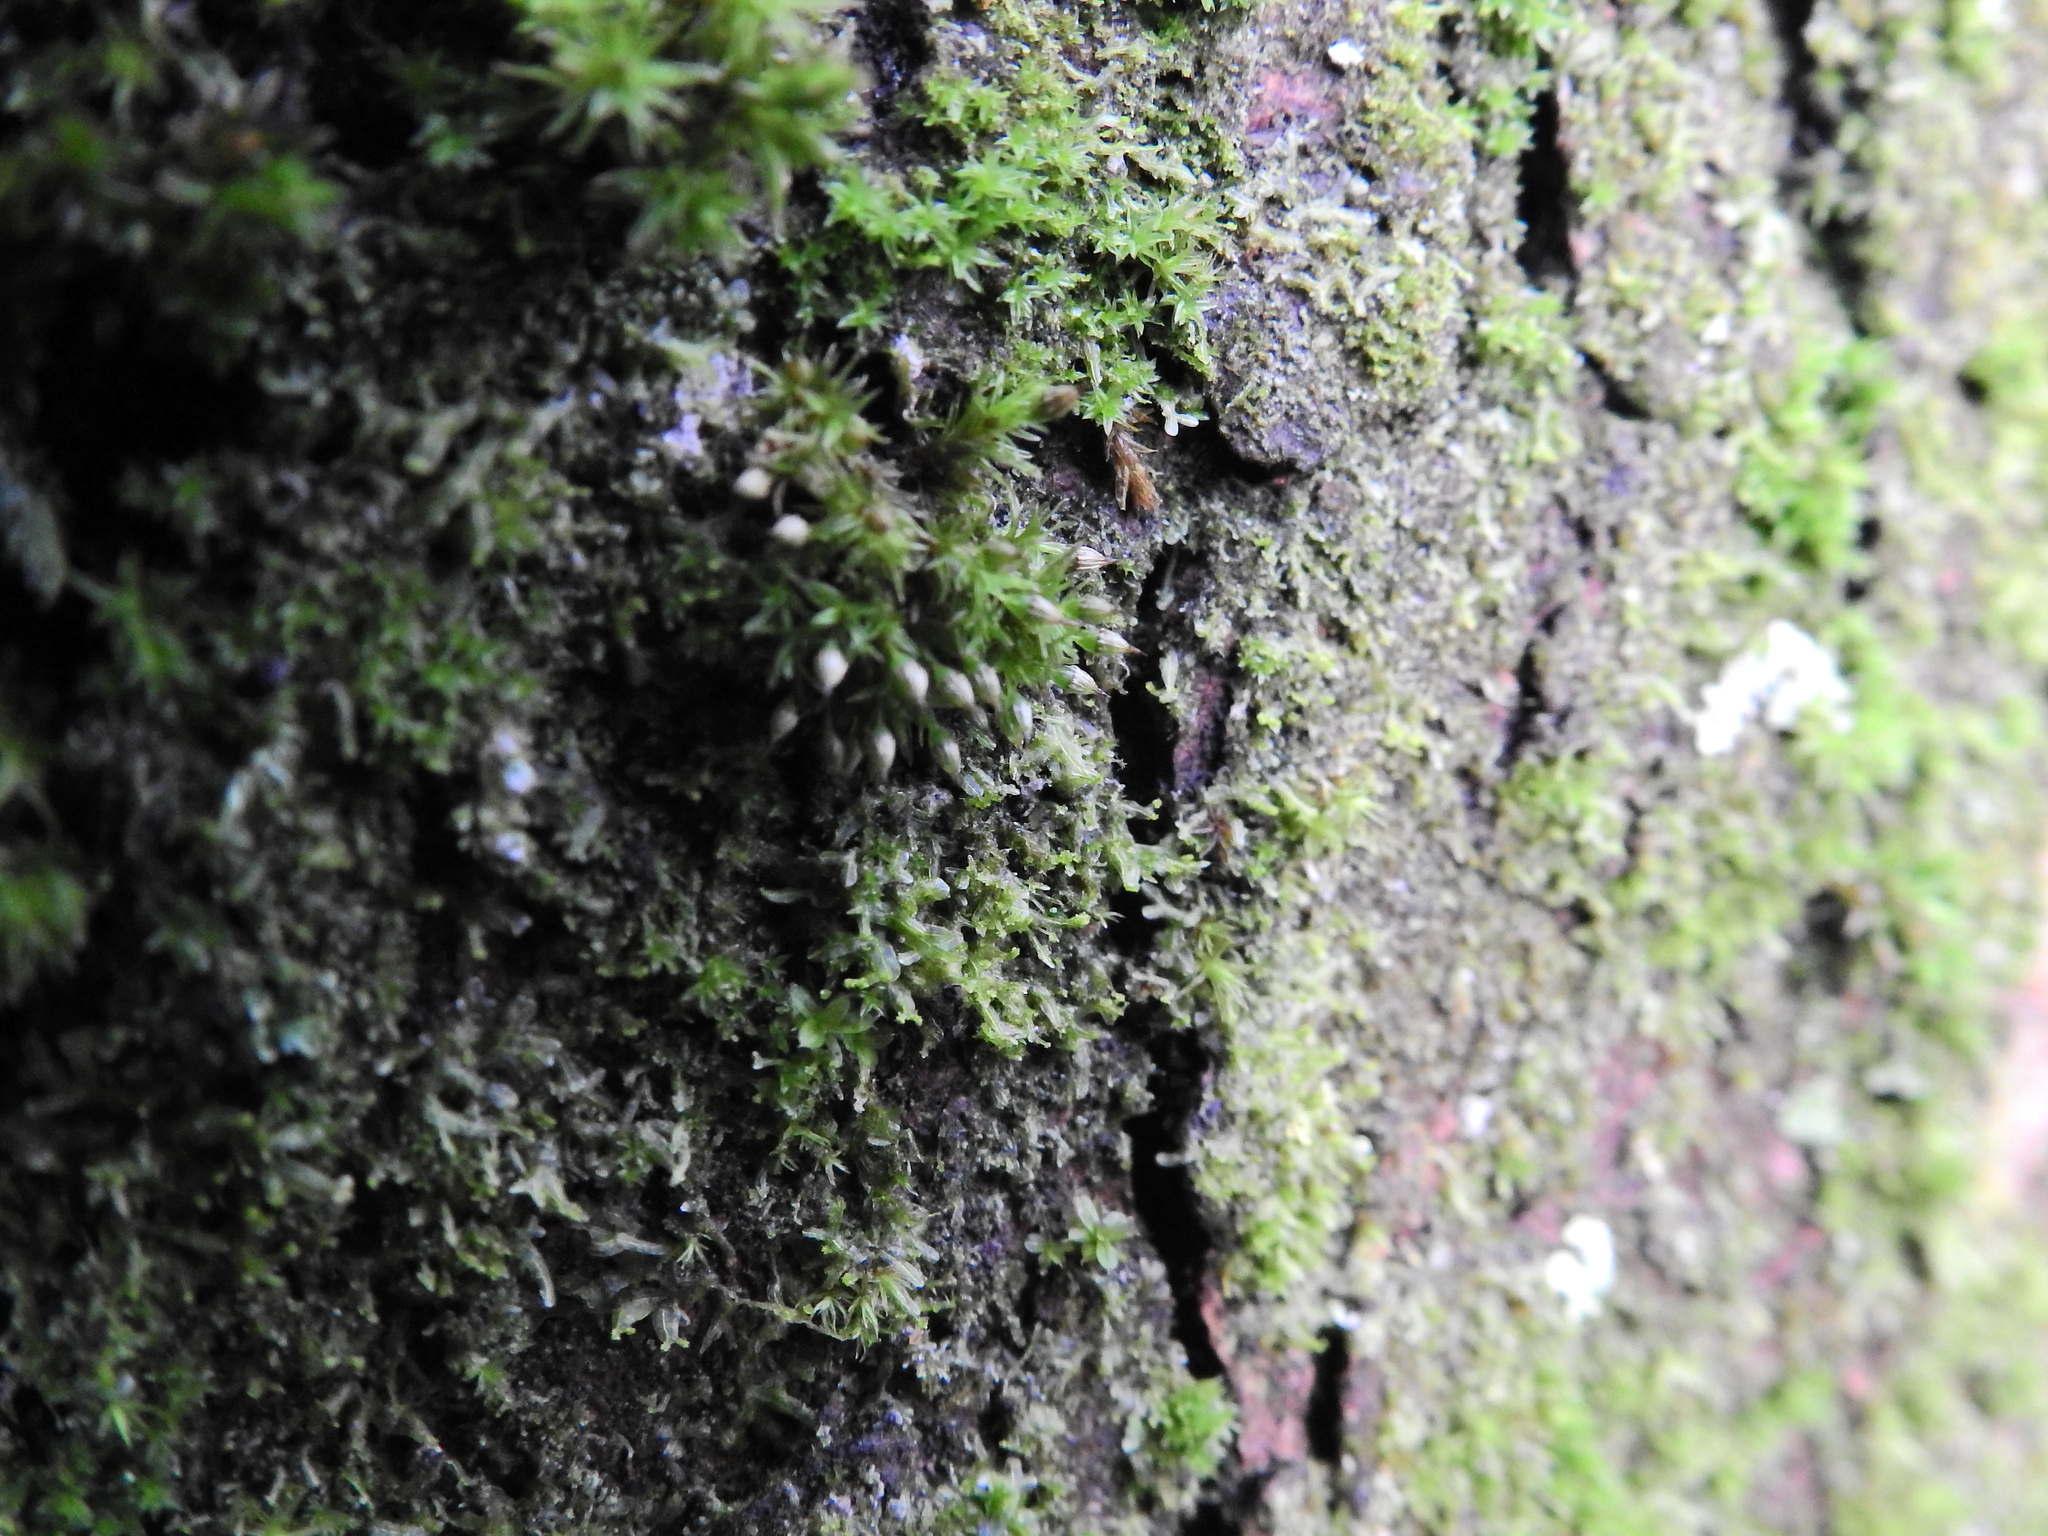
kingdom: Plantae
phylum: Bryophyta
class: Bryopsida
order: Orthotrichales
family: Orthotrichaceae
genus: Orthotrichum
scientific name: Orthotrichum pulchellum
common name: Elegant bristle-moss
